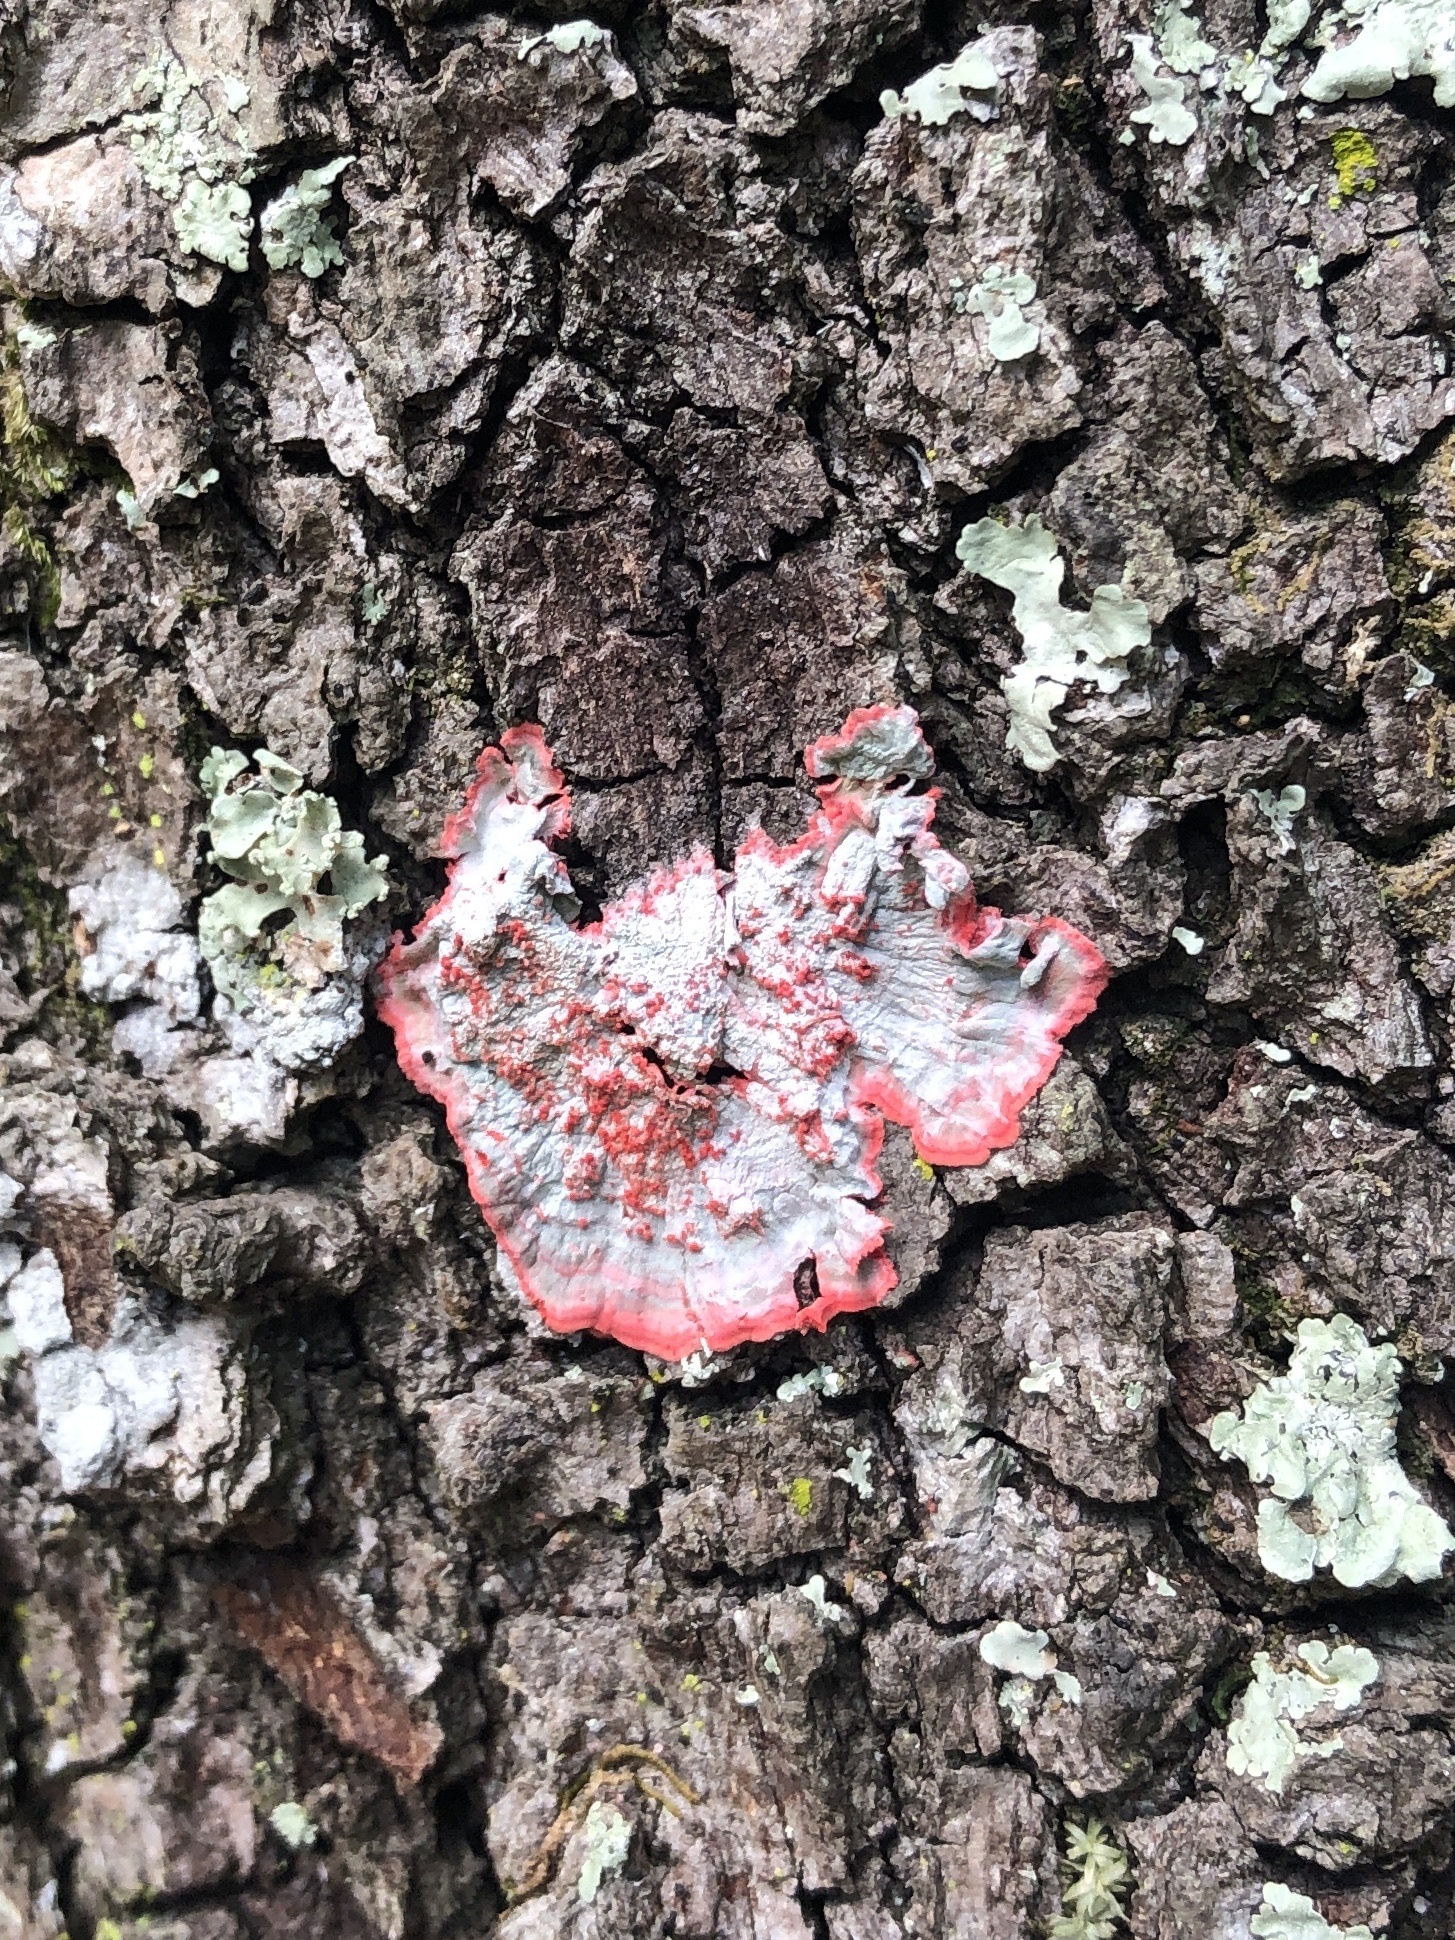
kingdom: Fungi
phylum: Ascomycota
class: Arthoniomycetes
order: Arthoniales
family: Arthoniaceae
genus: Herpothallon
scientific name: Herpothallon rubrocinctum
